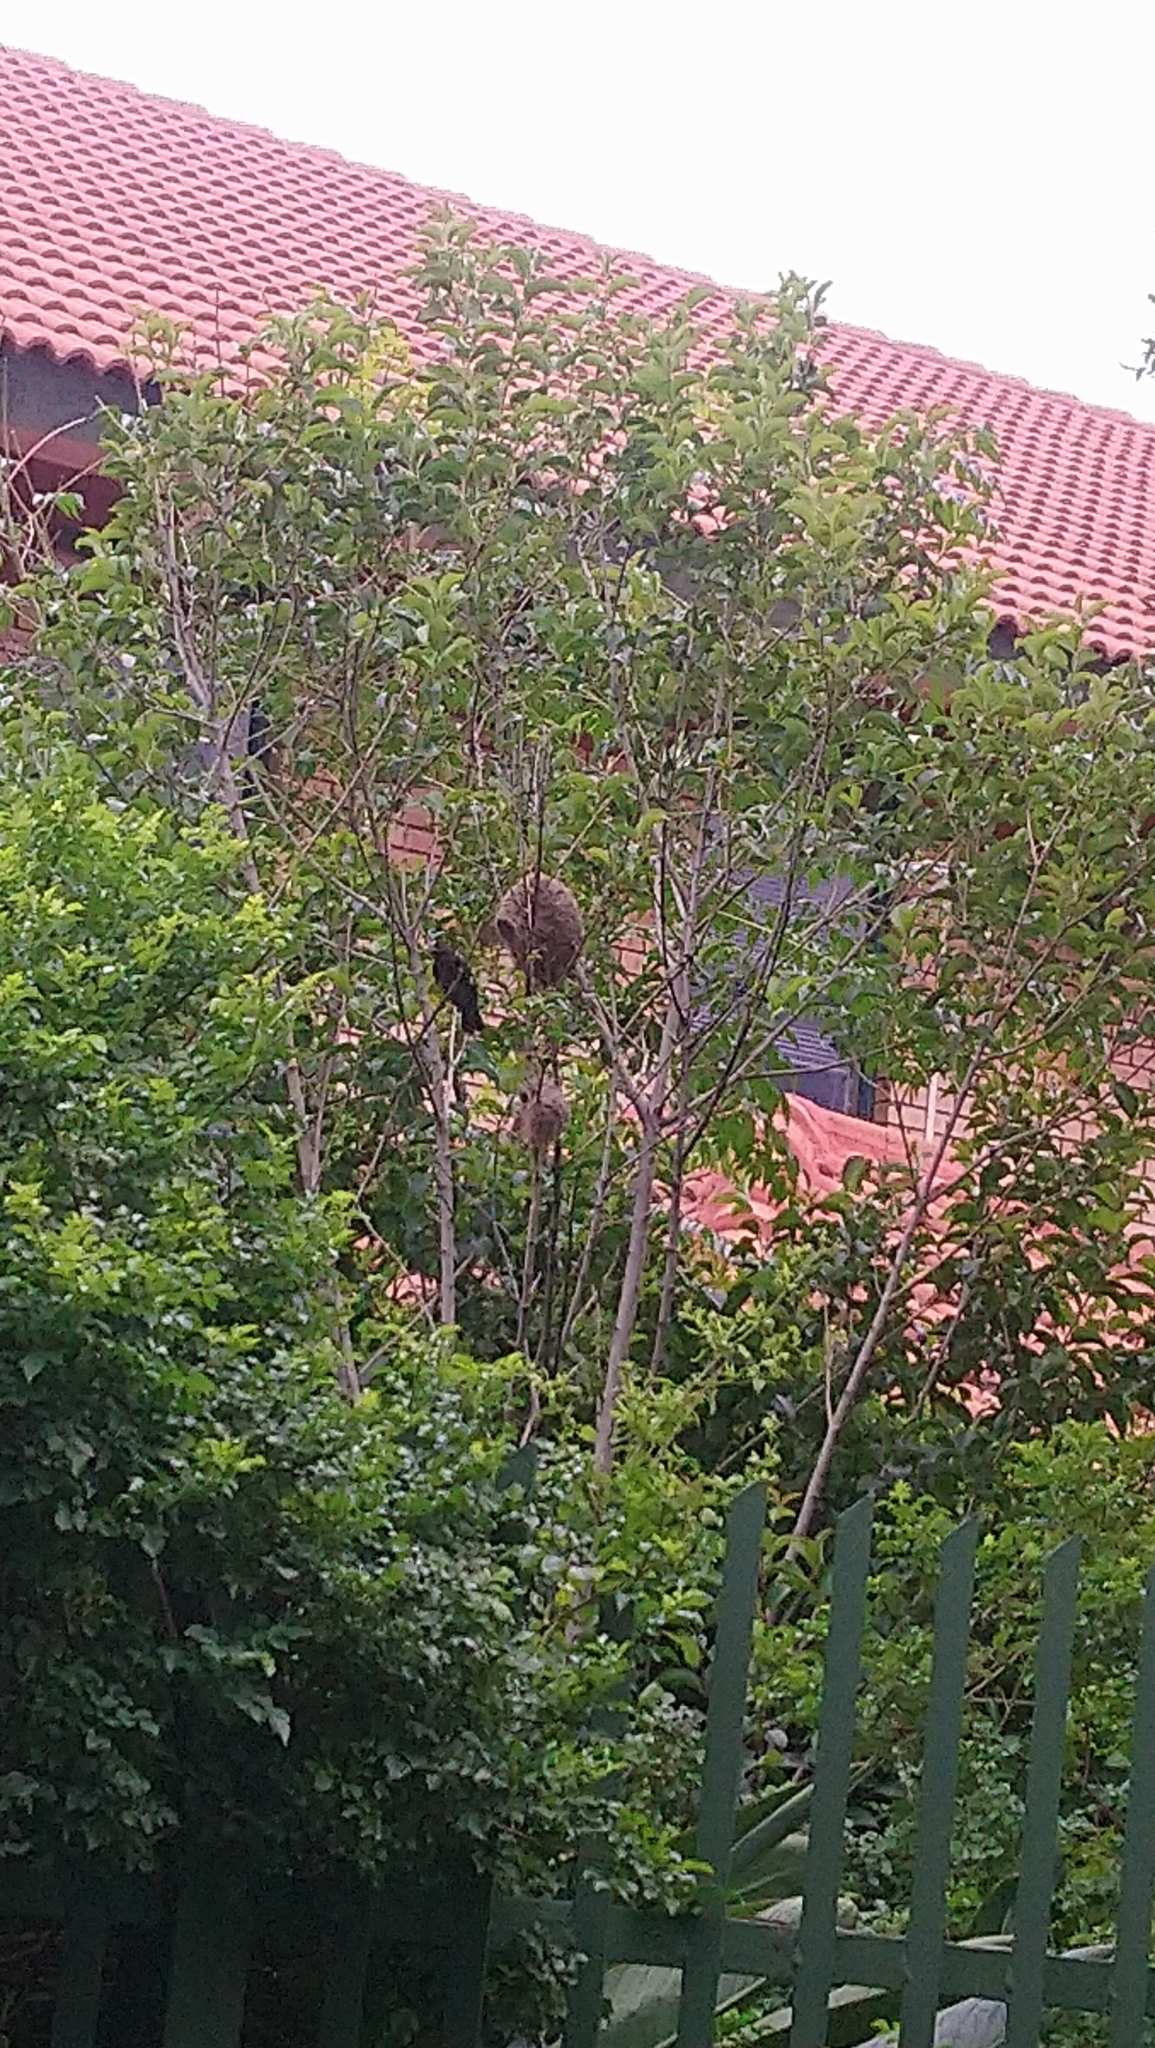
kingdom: Animalia
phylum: Chordata
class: Aves
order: Passeriformes
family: Ploceidae
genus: Amblyospiza
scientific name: Amblyospiza albifrons
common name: Thick-billed weaver
